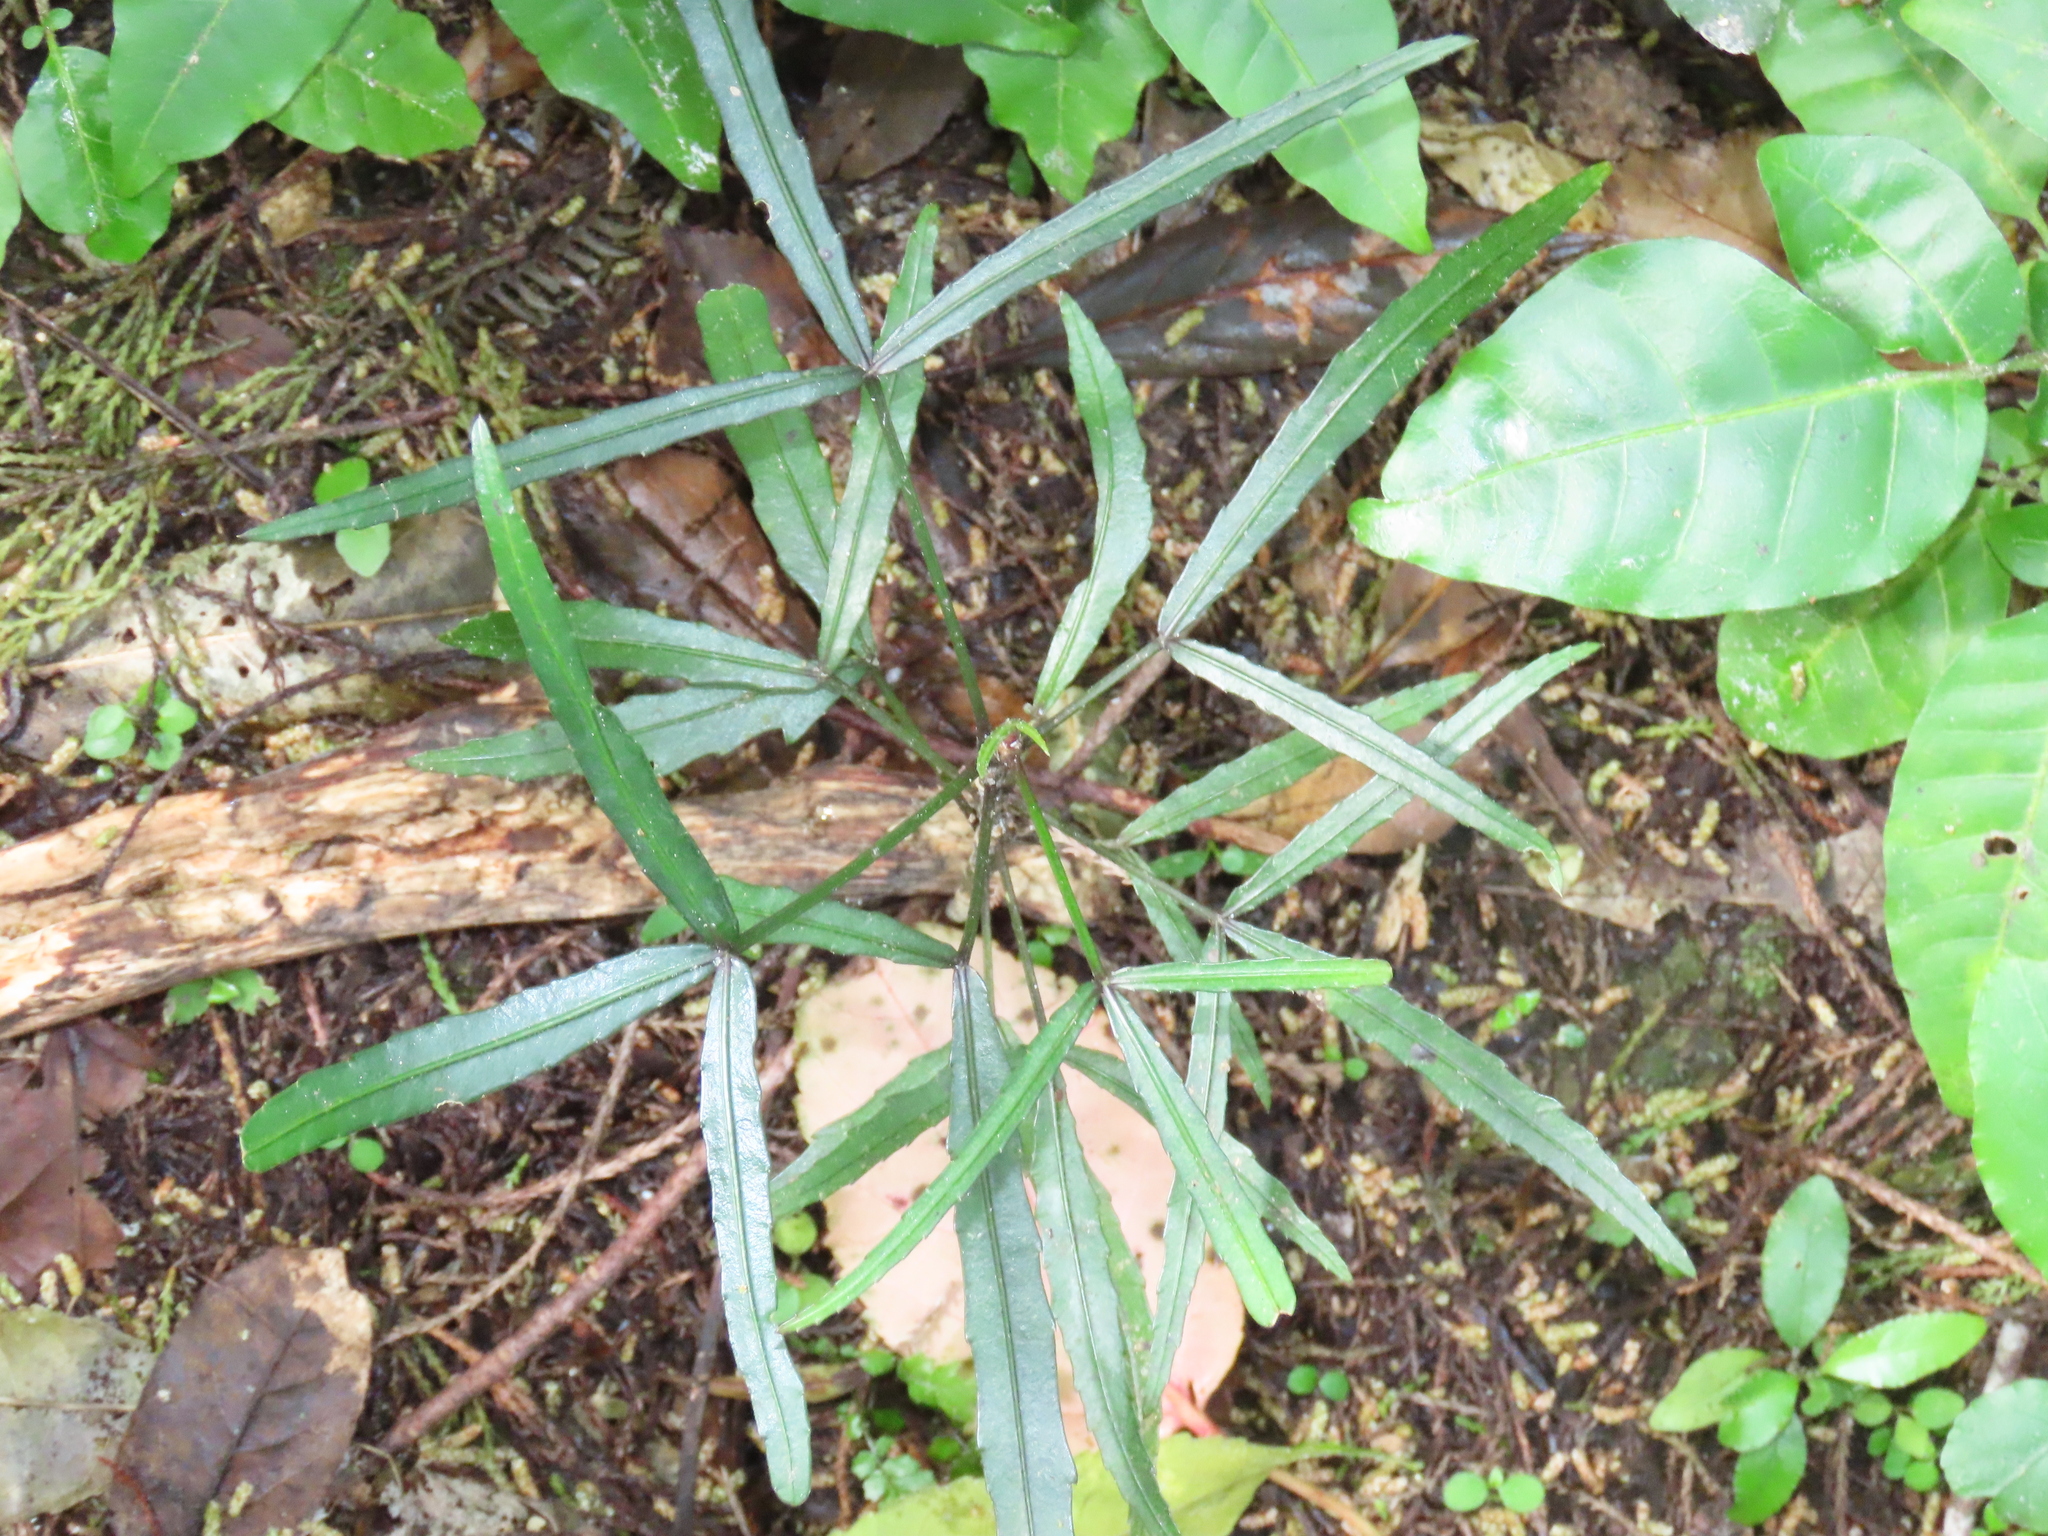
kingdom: Plantae
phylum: Tracheophyta
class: Magnoliopsida
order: Apiales
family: Araliaceae
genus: Pseudopanax
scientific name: Pseudopanax
